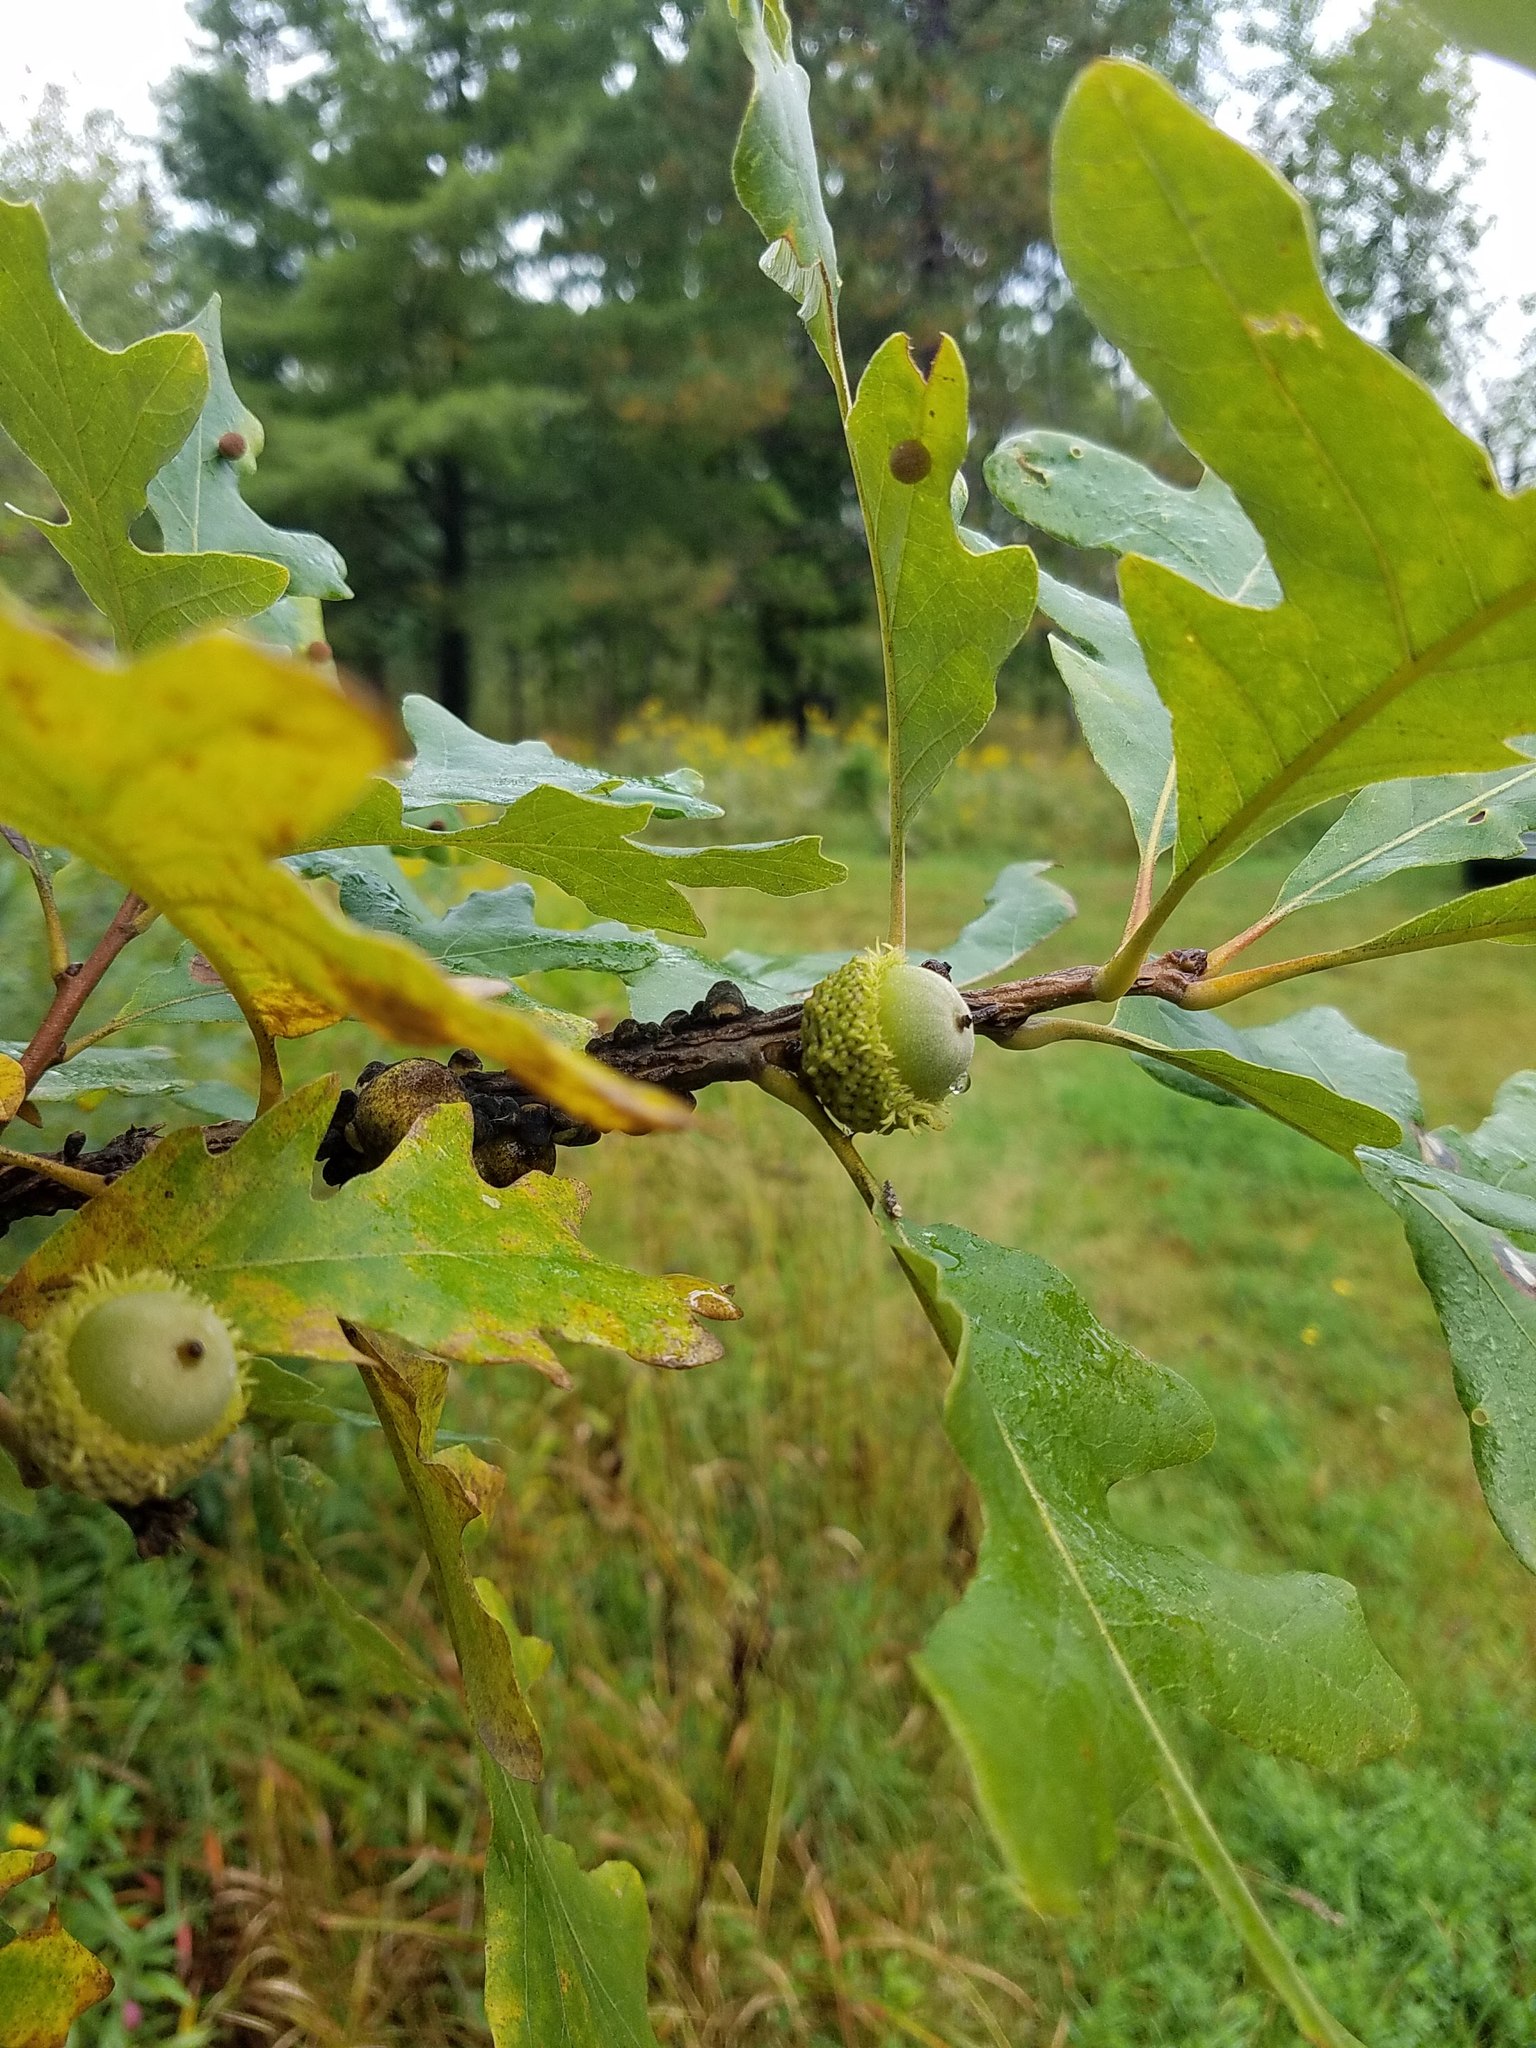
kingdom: Plantae
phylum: Tracheophyta
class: Magnoliopsida
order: Fagales
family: Fagaceae
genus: Quercus
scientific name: Quercus macrocarpa
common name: Bur oak
